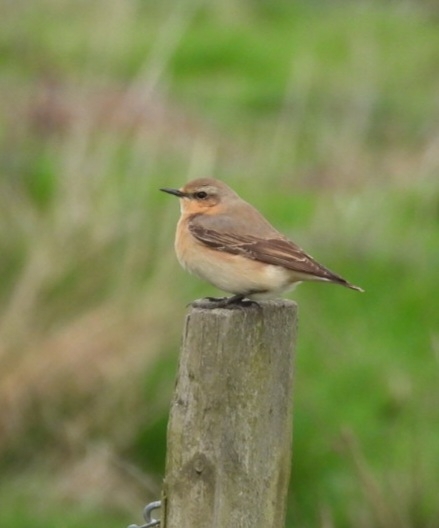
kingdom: Animalia
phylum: Chordata
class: Aves
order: Passeriformes
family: Muscicapidae
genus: Oenanthe
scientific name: Oenanthe oenanthe
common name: Northern wheatear
